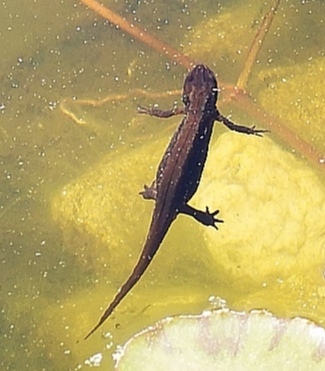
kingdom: Animalia
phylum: Chordata
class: Amphibia
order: Caudata
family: Salamandridae
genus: Lissotriton
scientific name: Lissotriton vulgaris
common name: Smooth newt
